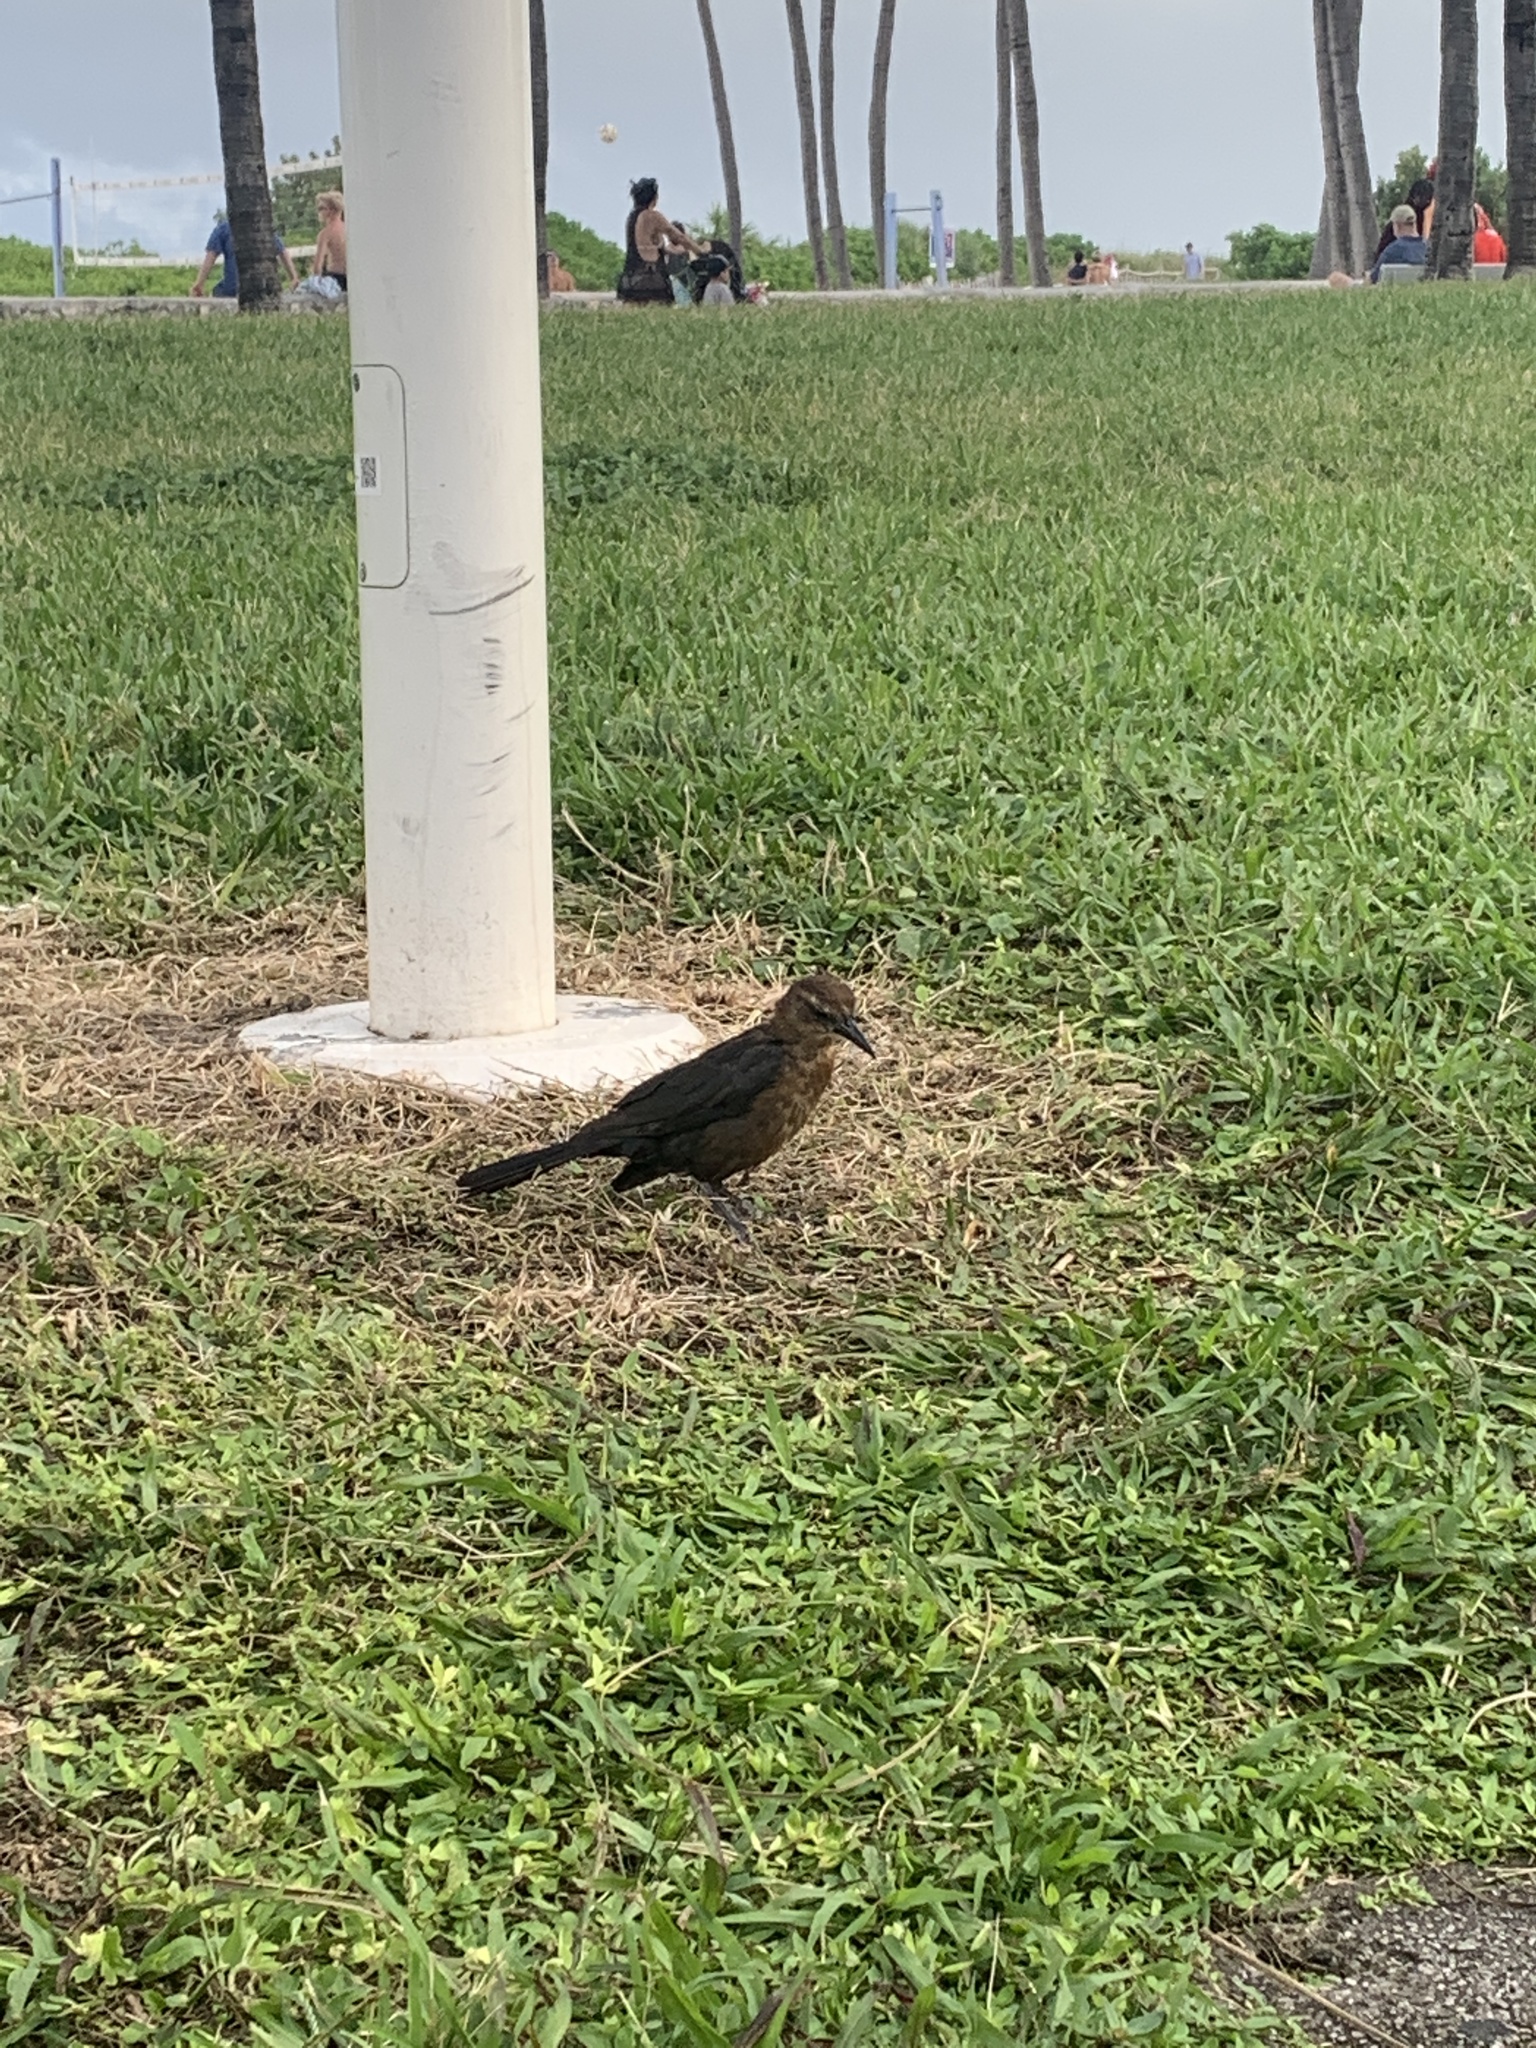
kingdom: Animalia
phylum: Chordata
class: Aves
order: Passeriformes
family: Icteridae
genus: Quiscalus
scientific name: Quiscalus major
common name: Boat-tailed grackle
